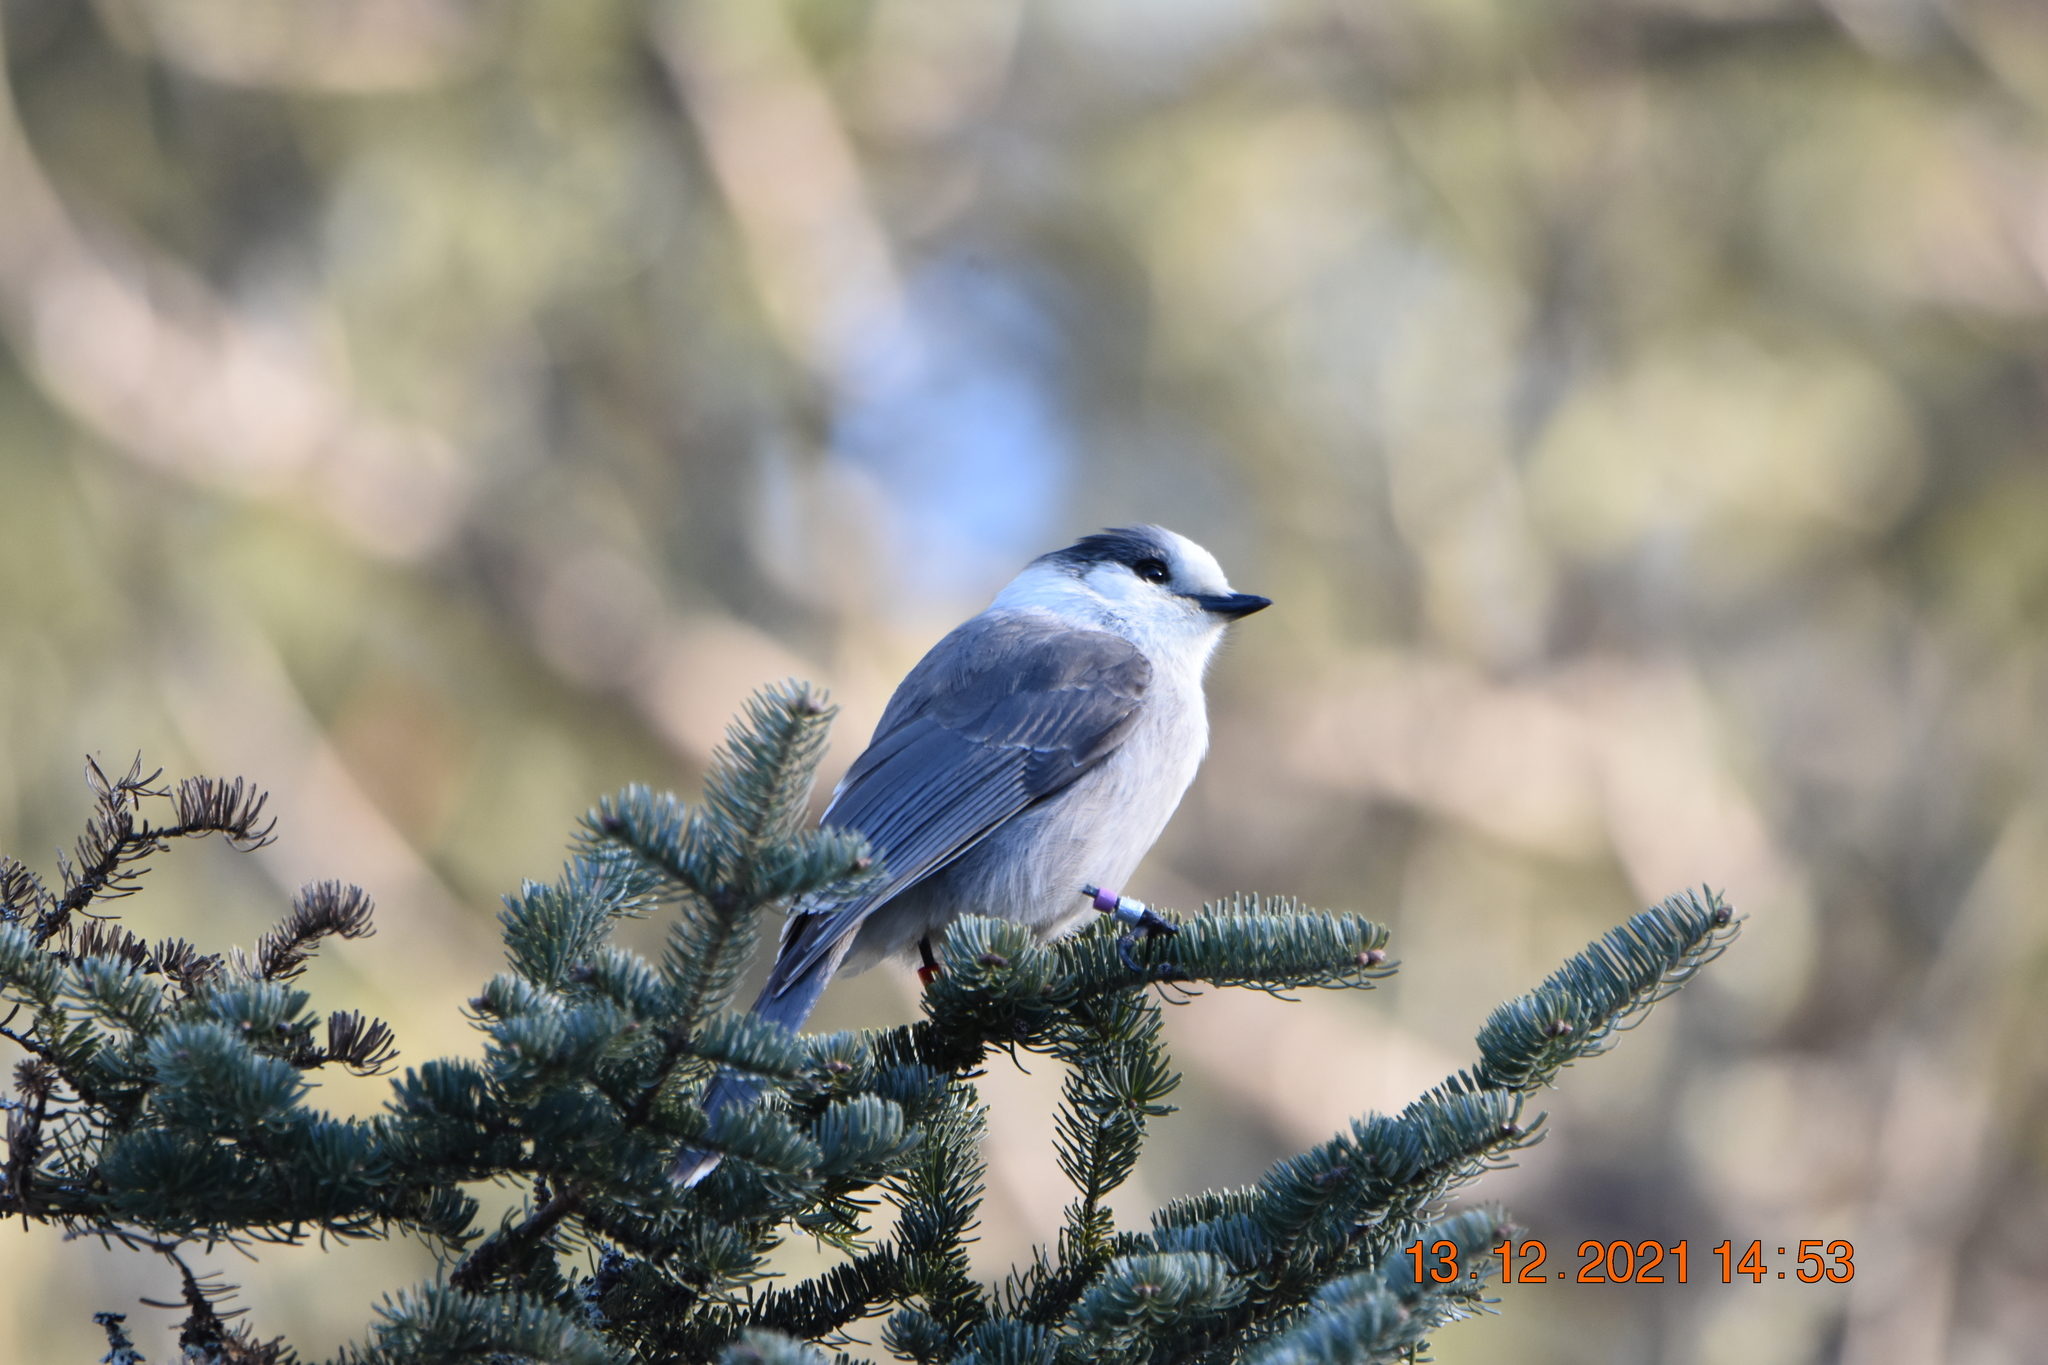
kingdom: Animalia
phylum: Chordata
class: Aves
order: Passeriformes
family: Corvidae
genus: Perisoreus
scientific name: Perisoreus canadensis
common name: Gray jay
